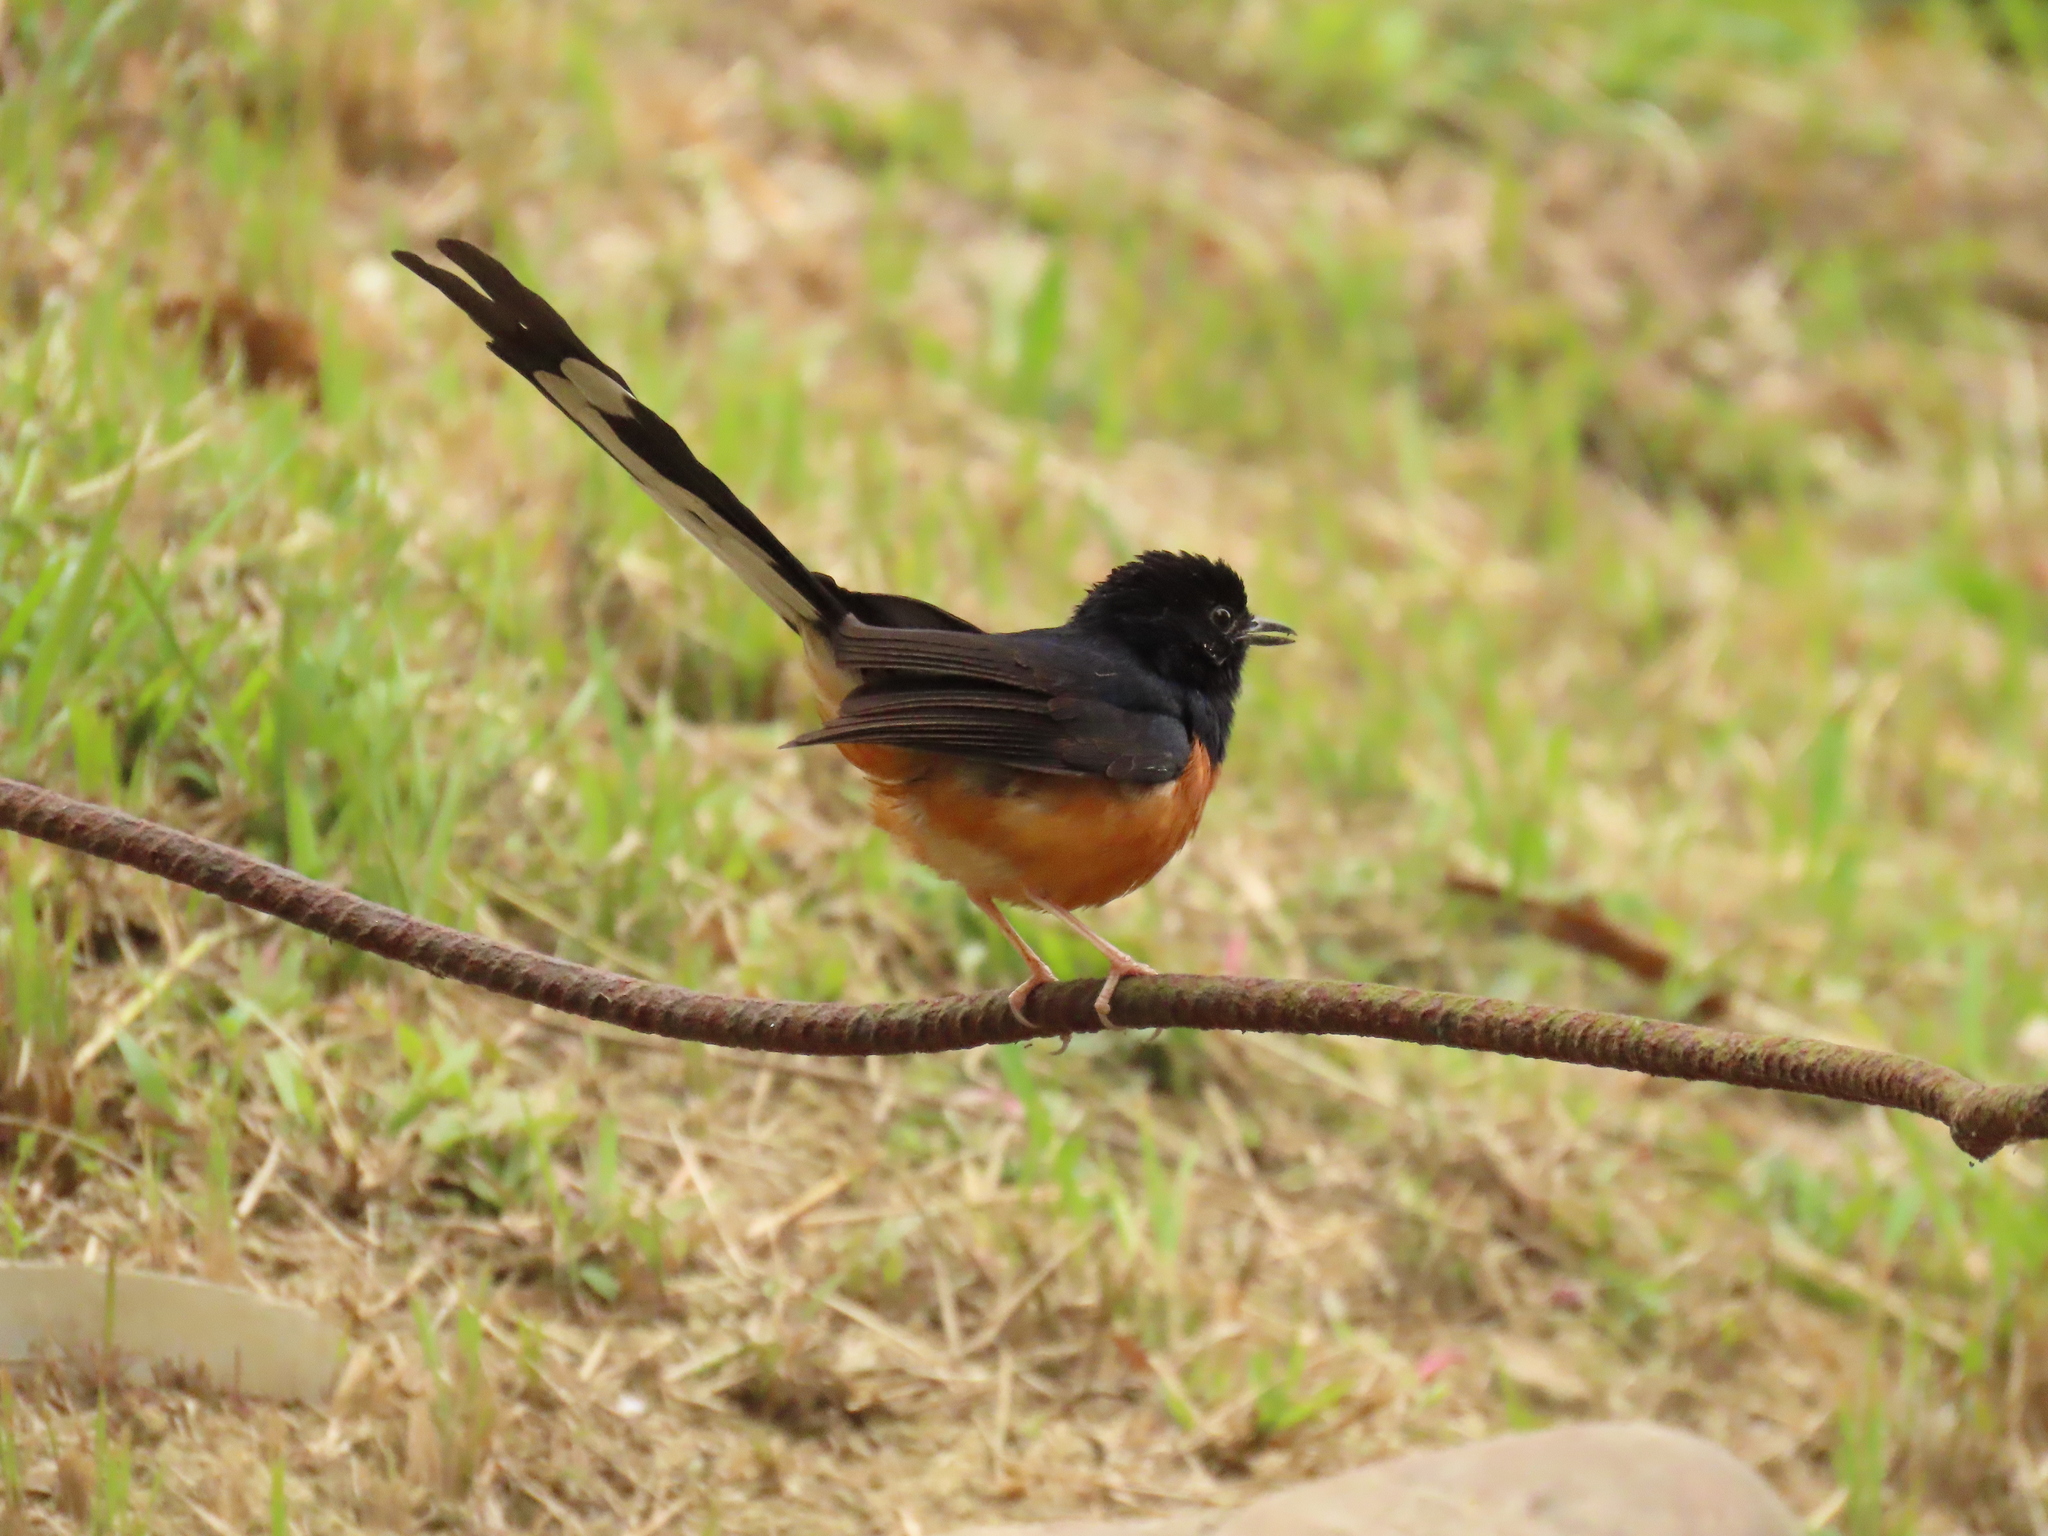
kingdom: Animalia
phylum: Chordata
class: Aves
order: Passeriformes
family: Muscicapidae
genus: Copsychus
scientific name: Copsychus malabaricus
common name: White-rumped shama
